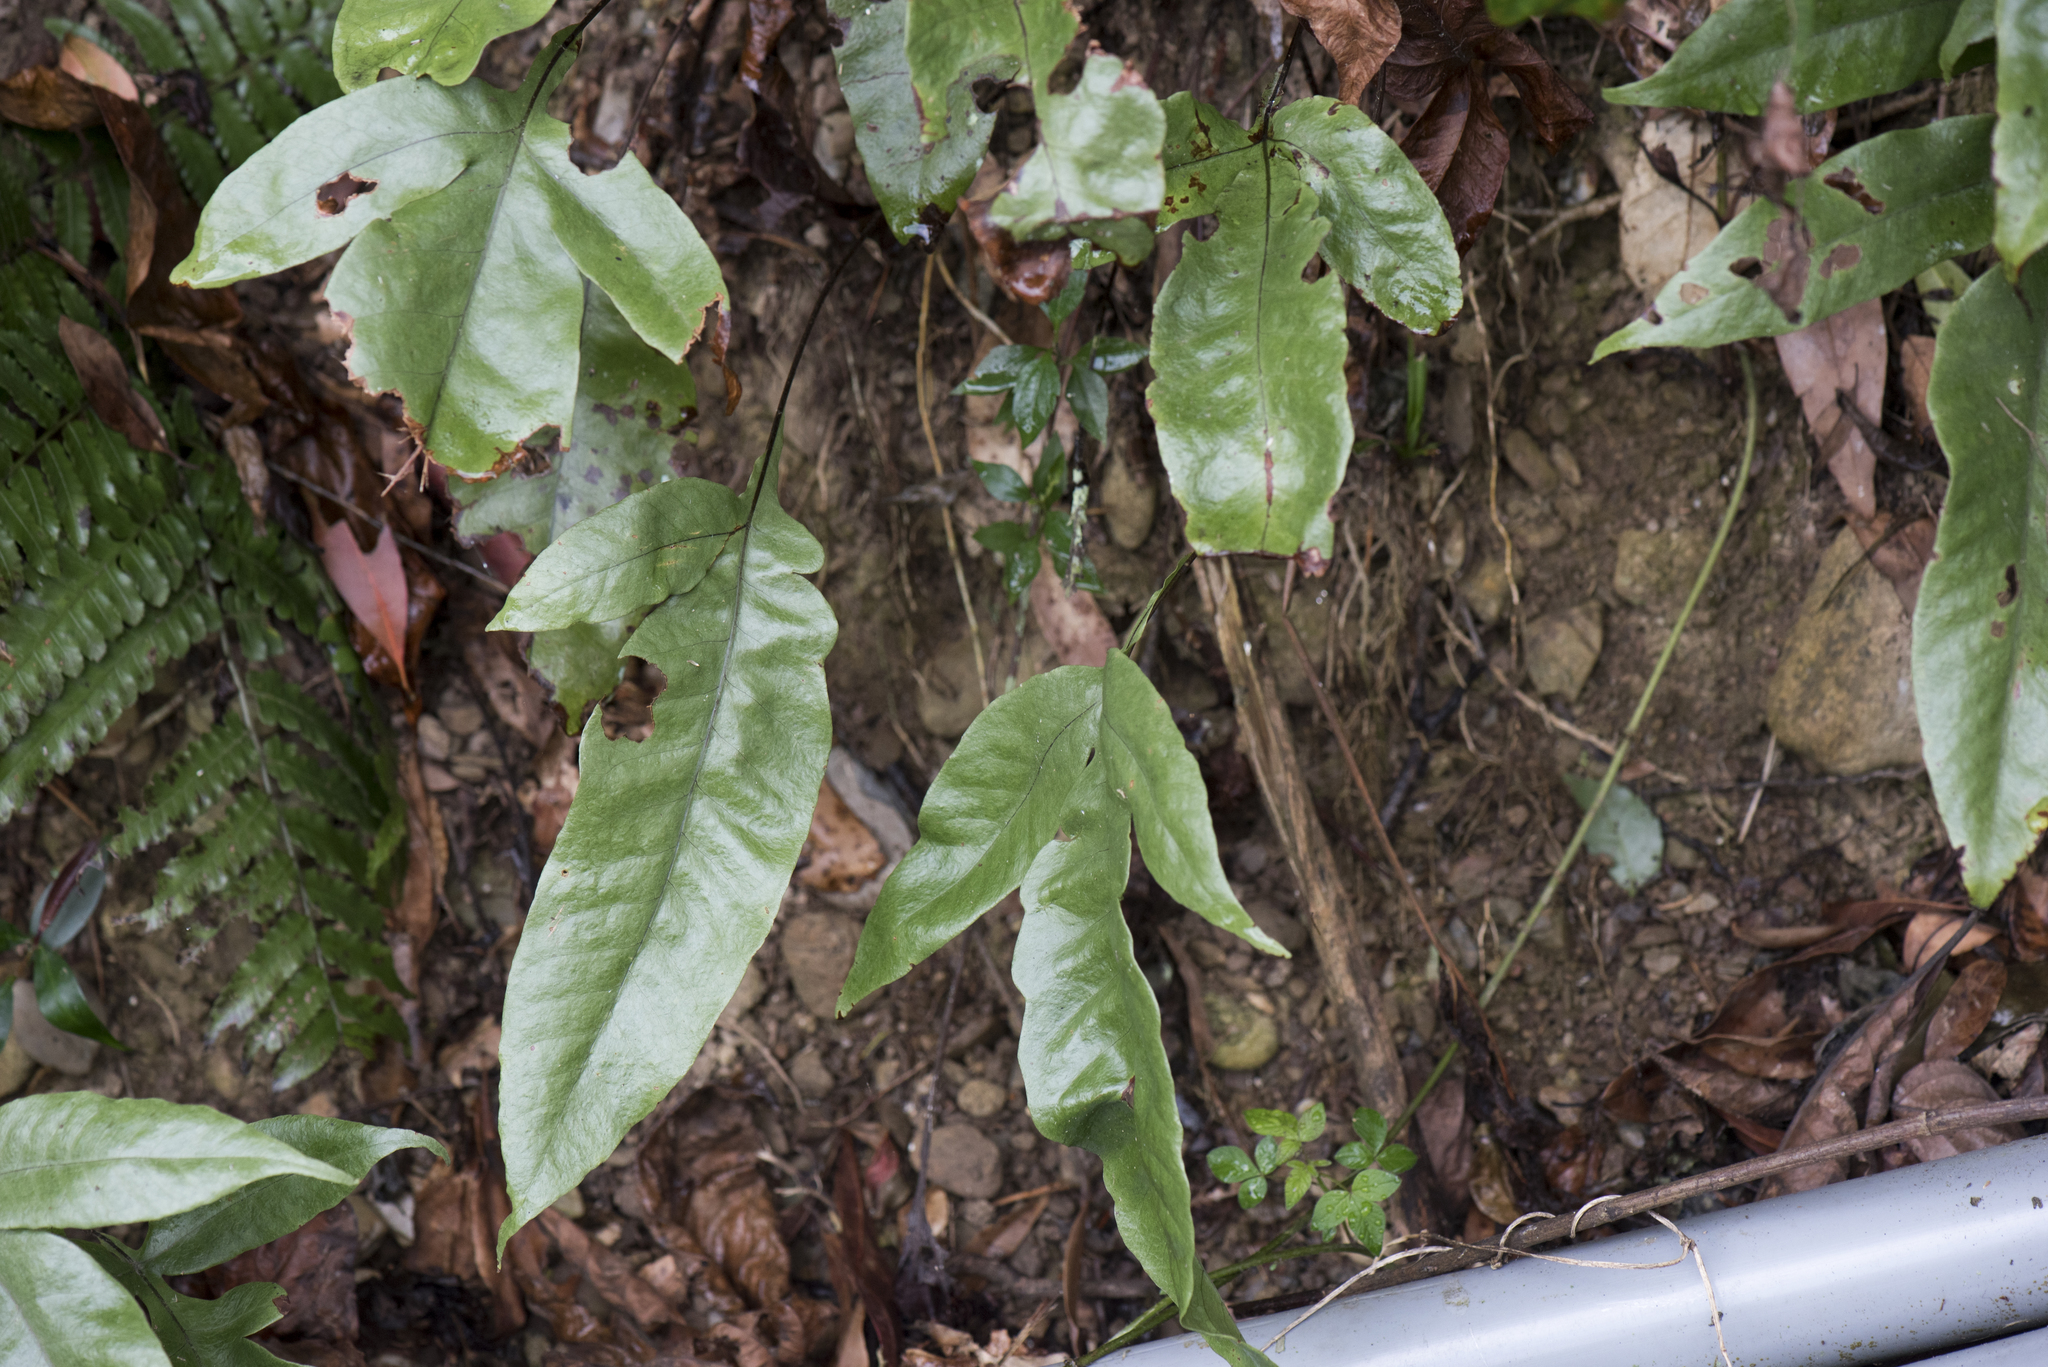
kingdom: Plantae
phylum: Tracheophyta
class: Polypodiopsida
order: Polypodiales
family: Tectariaceae
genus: Tectaria
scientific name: Tectaria harlandii
